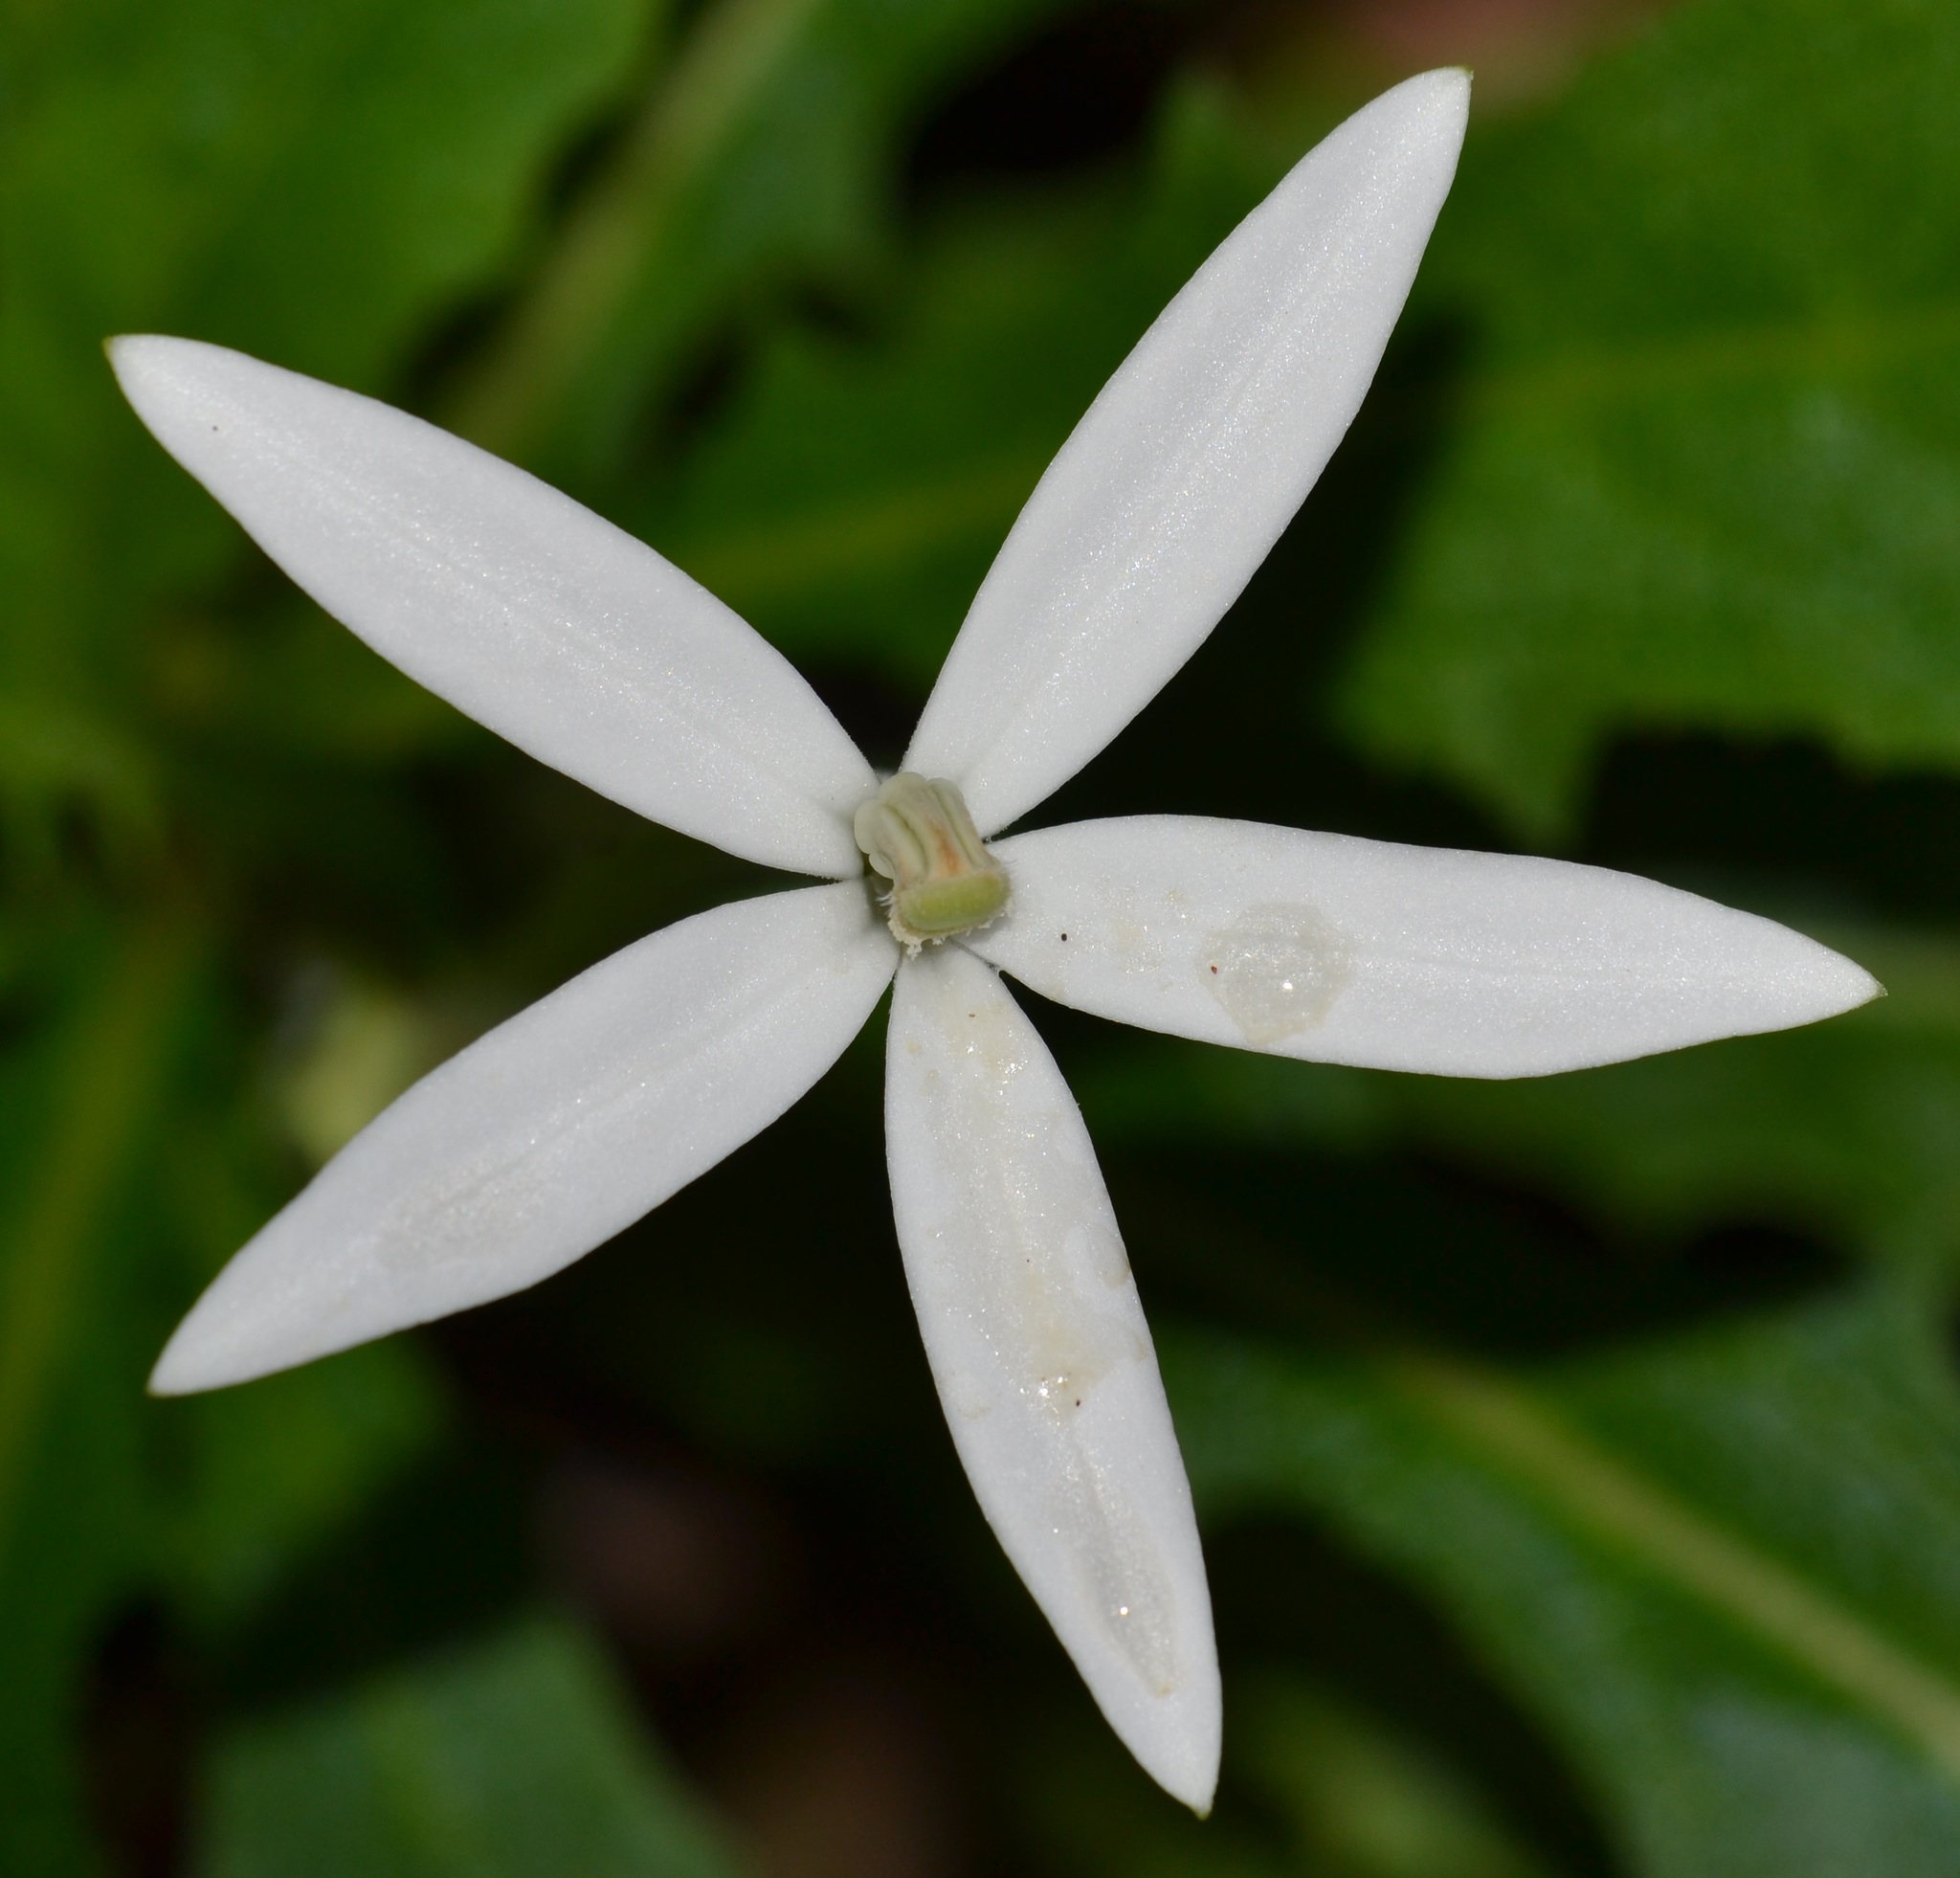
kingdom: Plantae
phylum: Tracheophyta
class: Magnoliopsida
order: Asterales
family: Campanulaceae
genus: Hippobroma
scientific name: Hippobroma longiflora
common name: Madamfate
